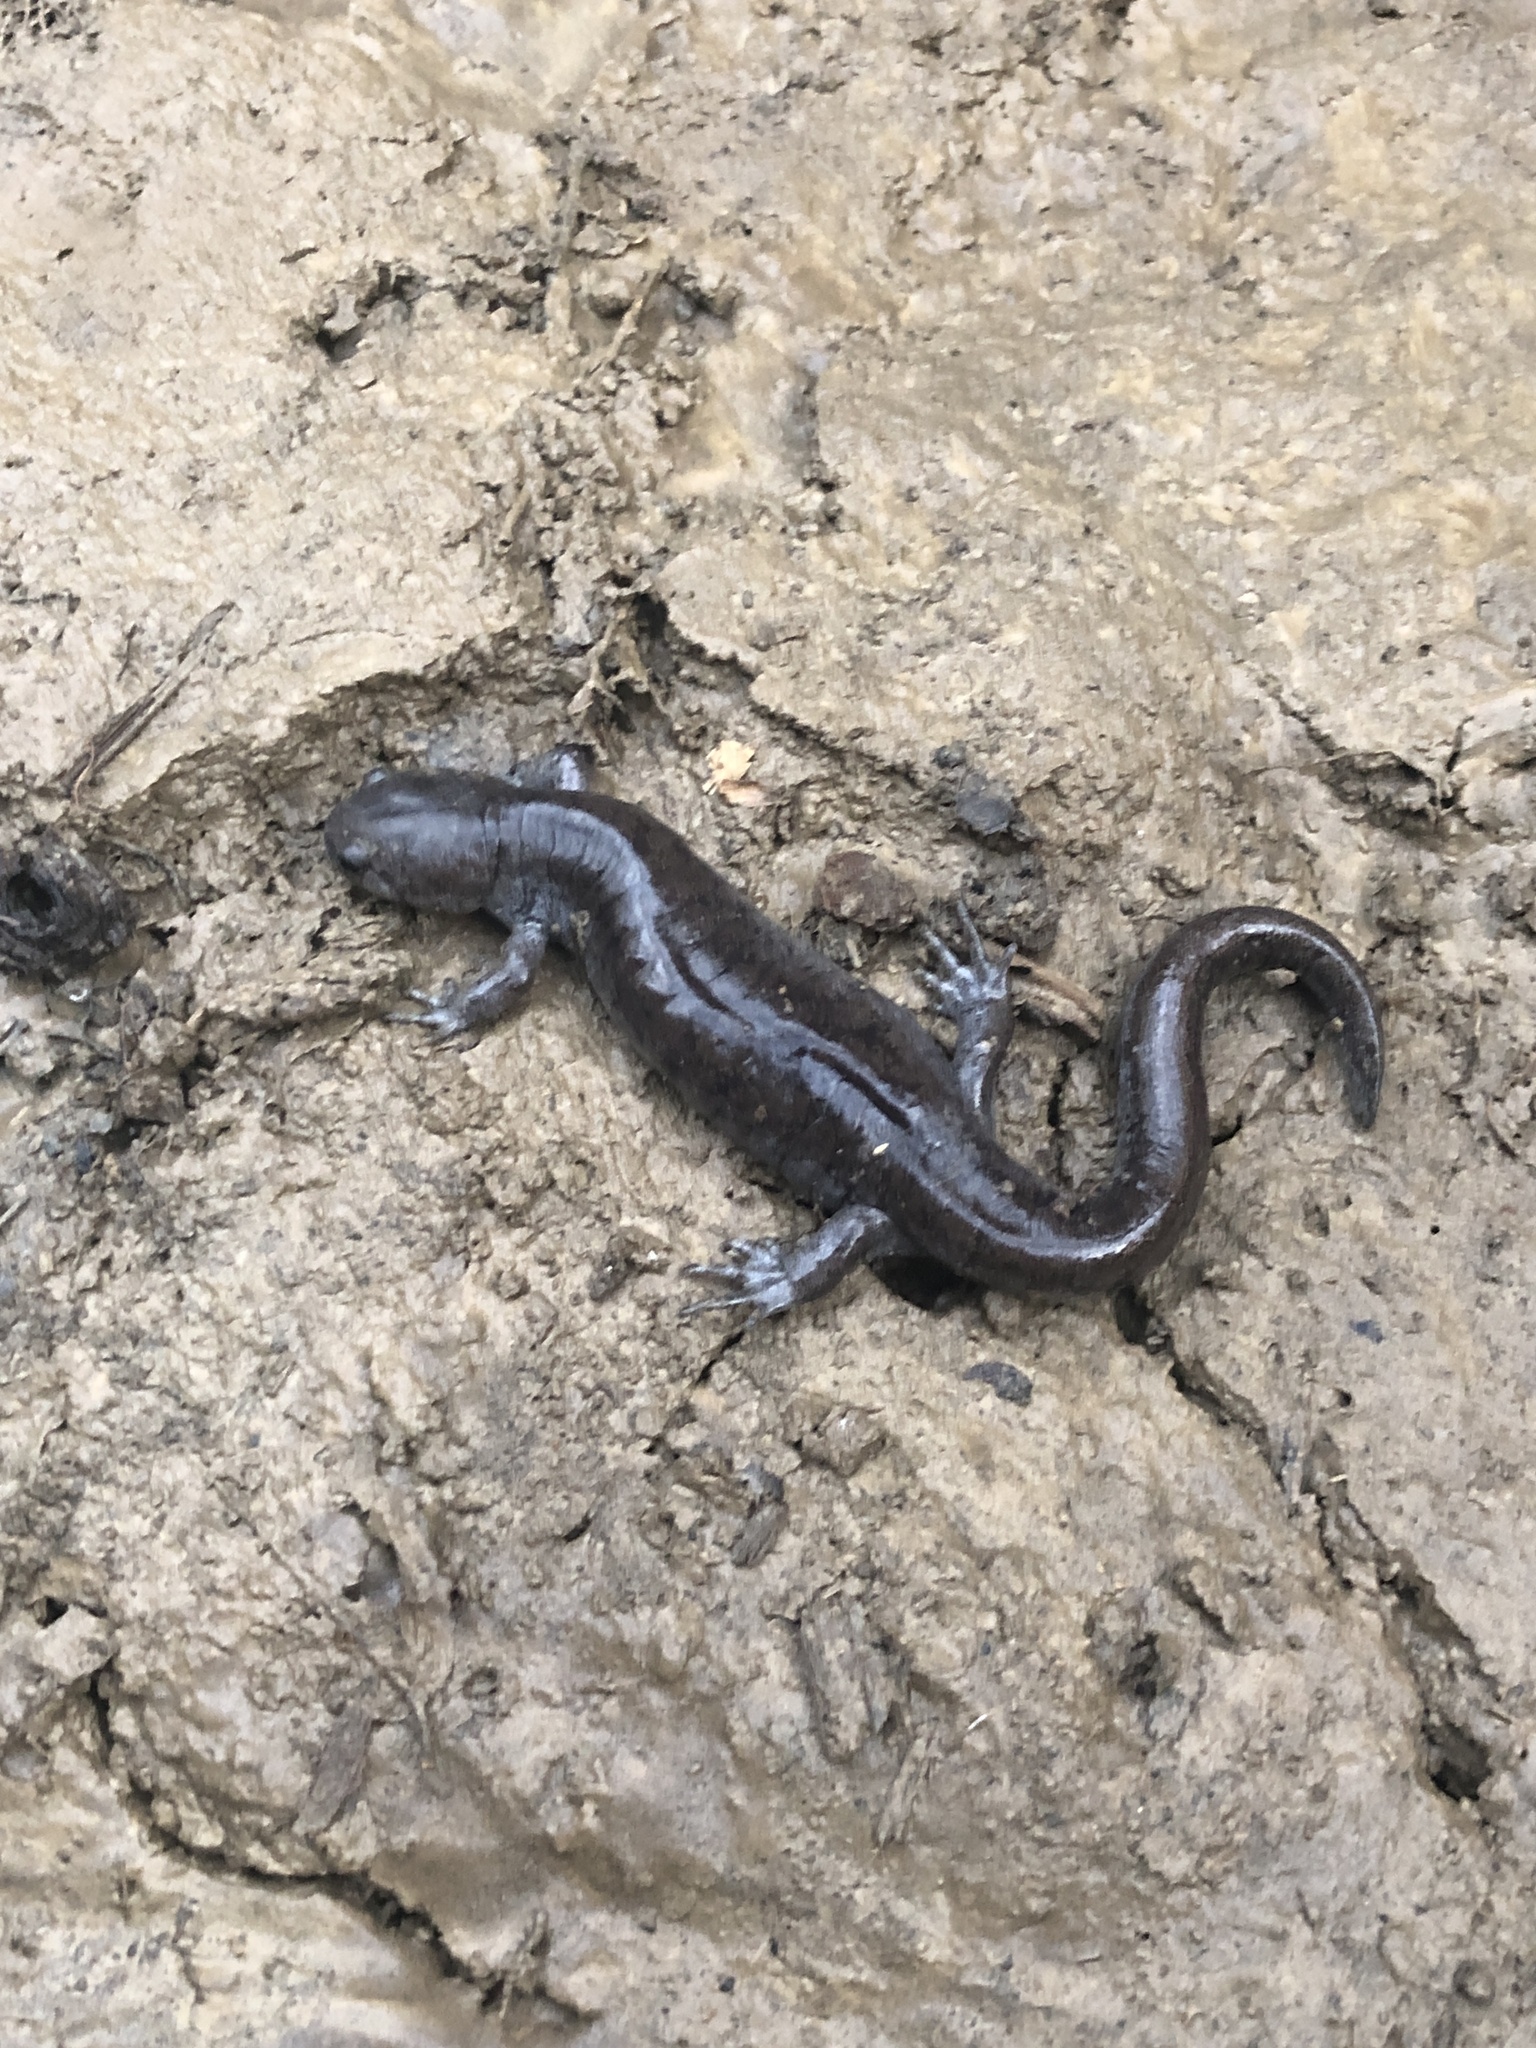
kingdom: Animalia
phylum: Chordata
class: Amphibia
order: Caudata
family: Ambystomatidae
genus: Ambystoma
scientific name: Ambystoma barbouri
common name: Streamside salamander
